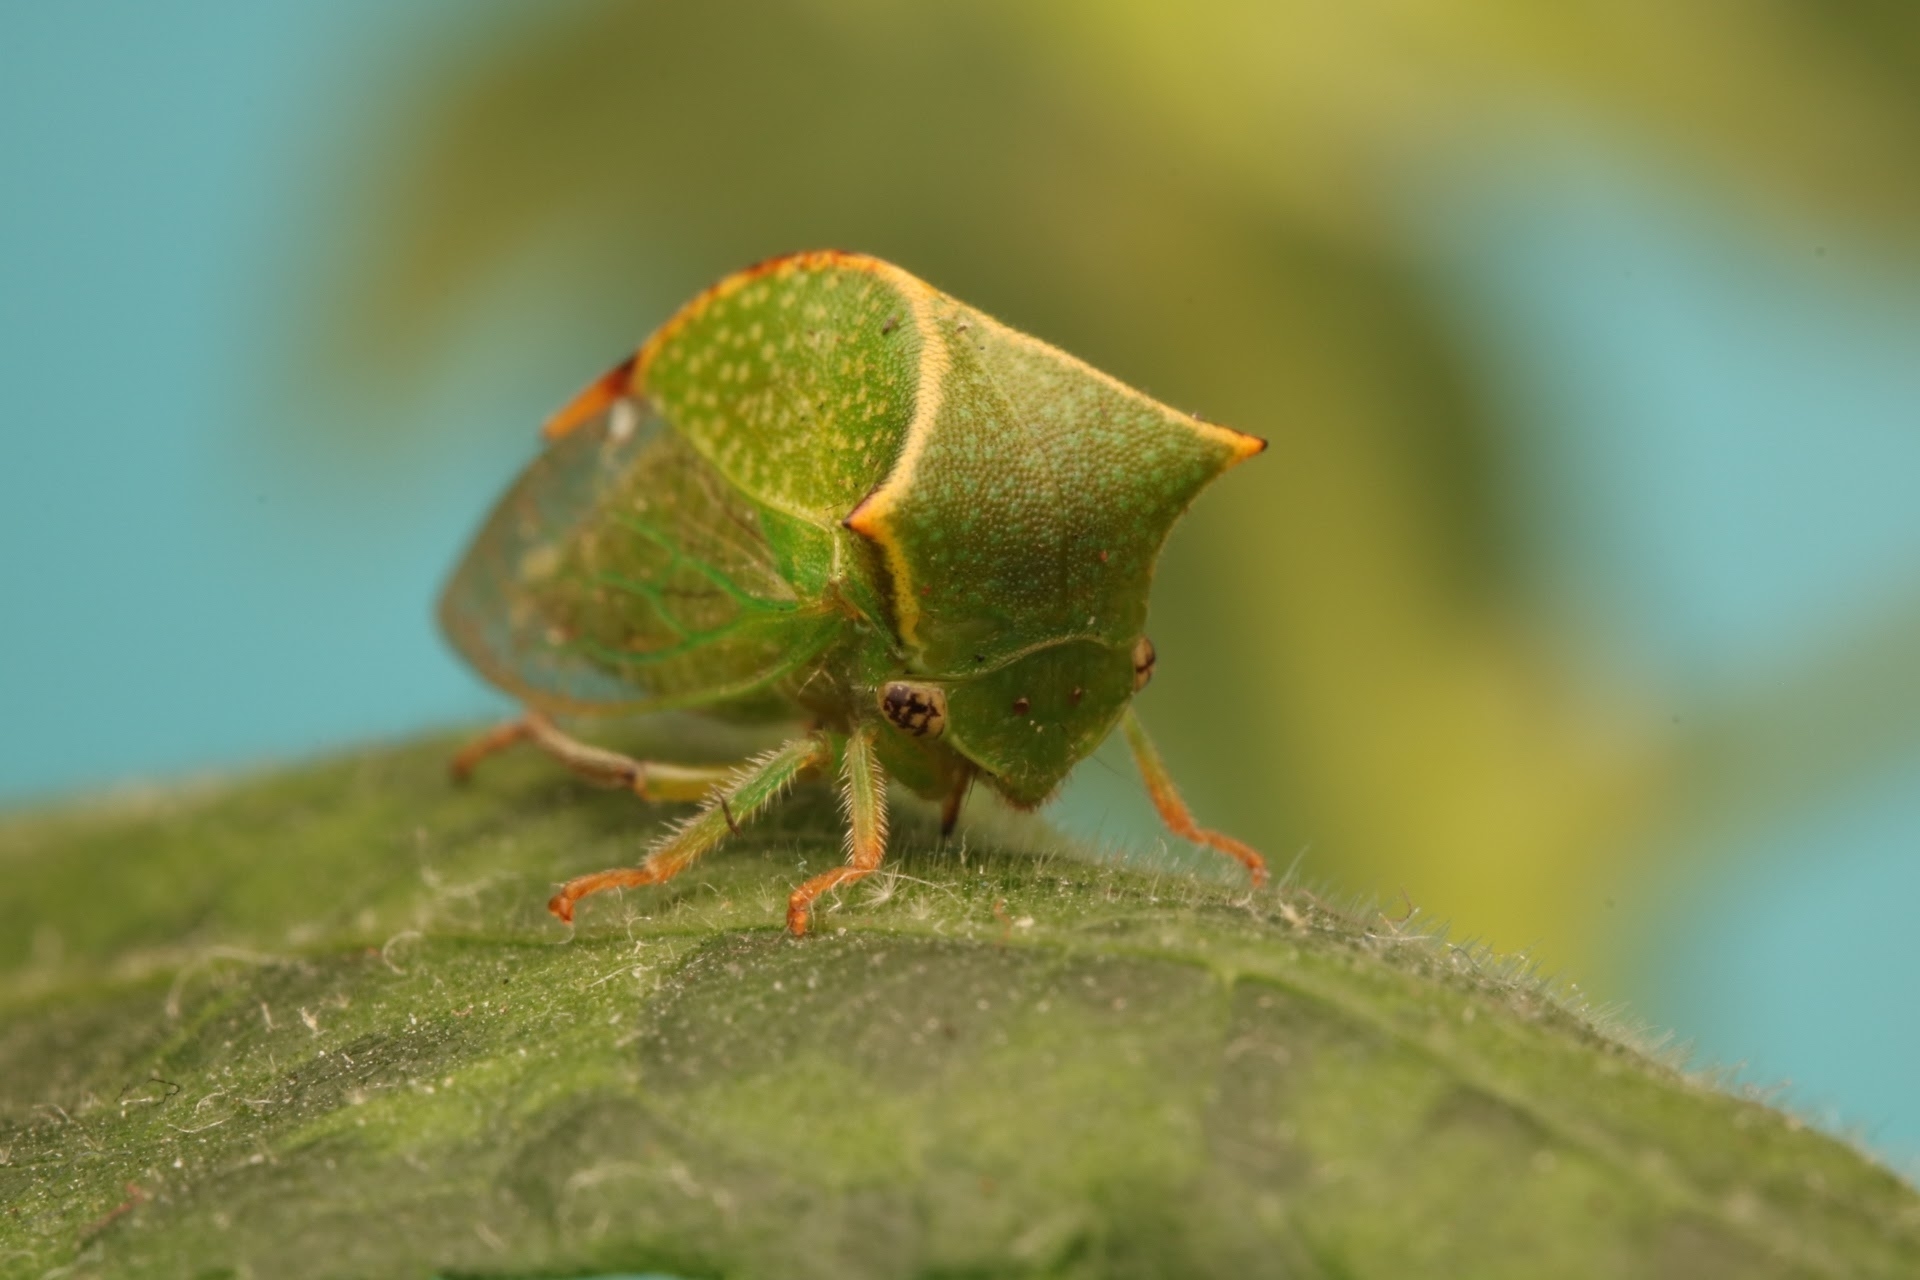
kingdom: Animalia
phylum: Arthropoda
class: Insecta
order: Hemiptera
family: Membracidae
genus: Stictocephala
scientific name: Stictocephala bisonia
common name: American buffalo treehopper
